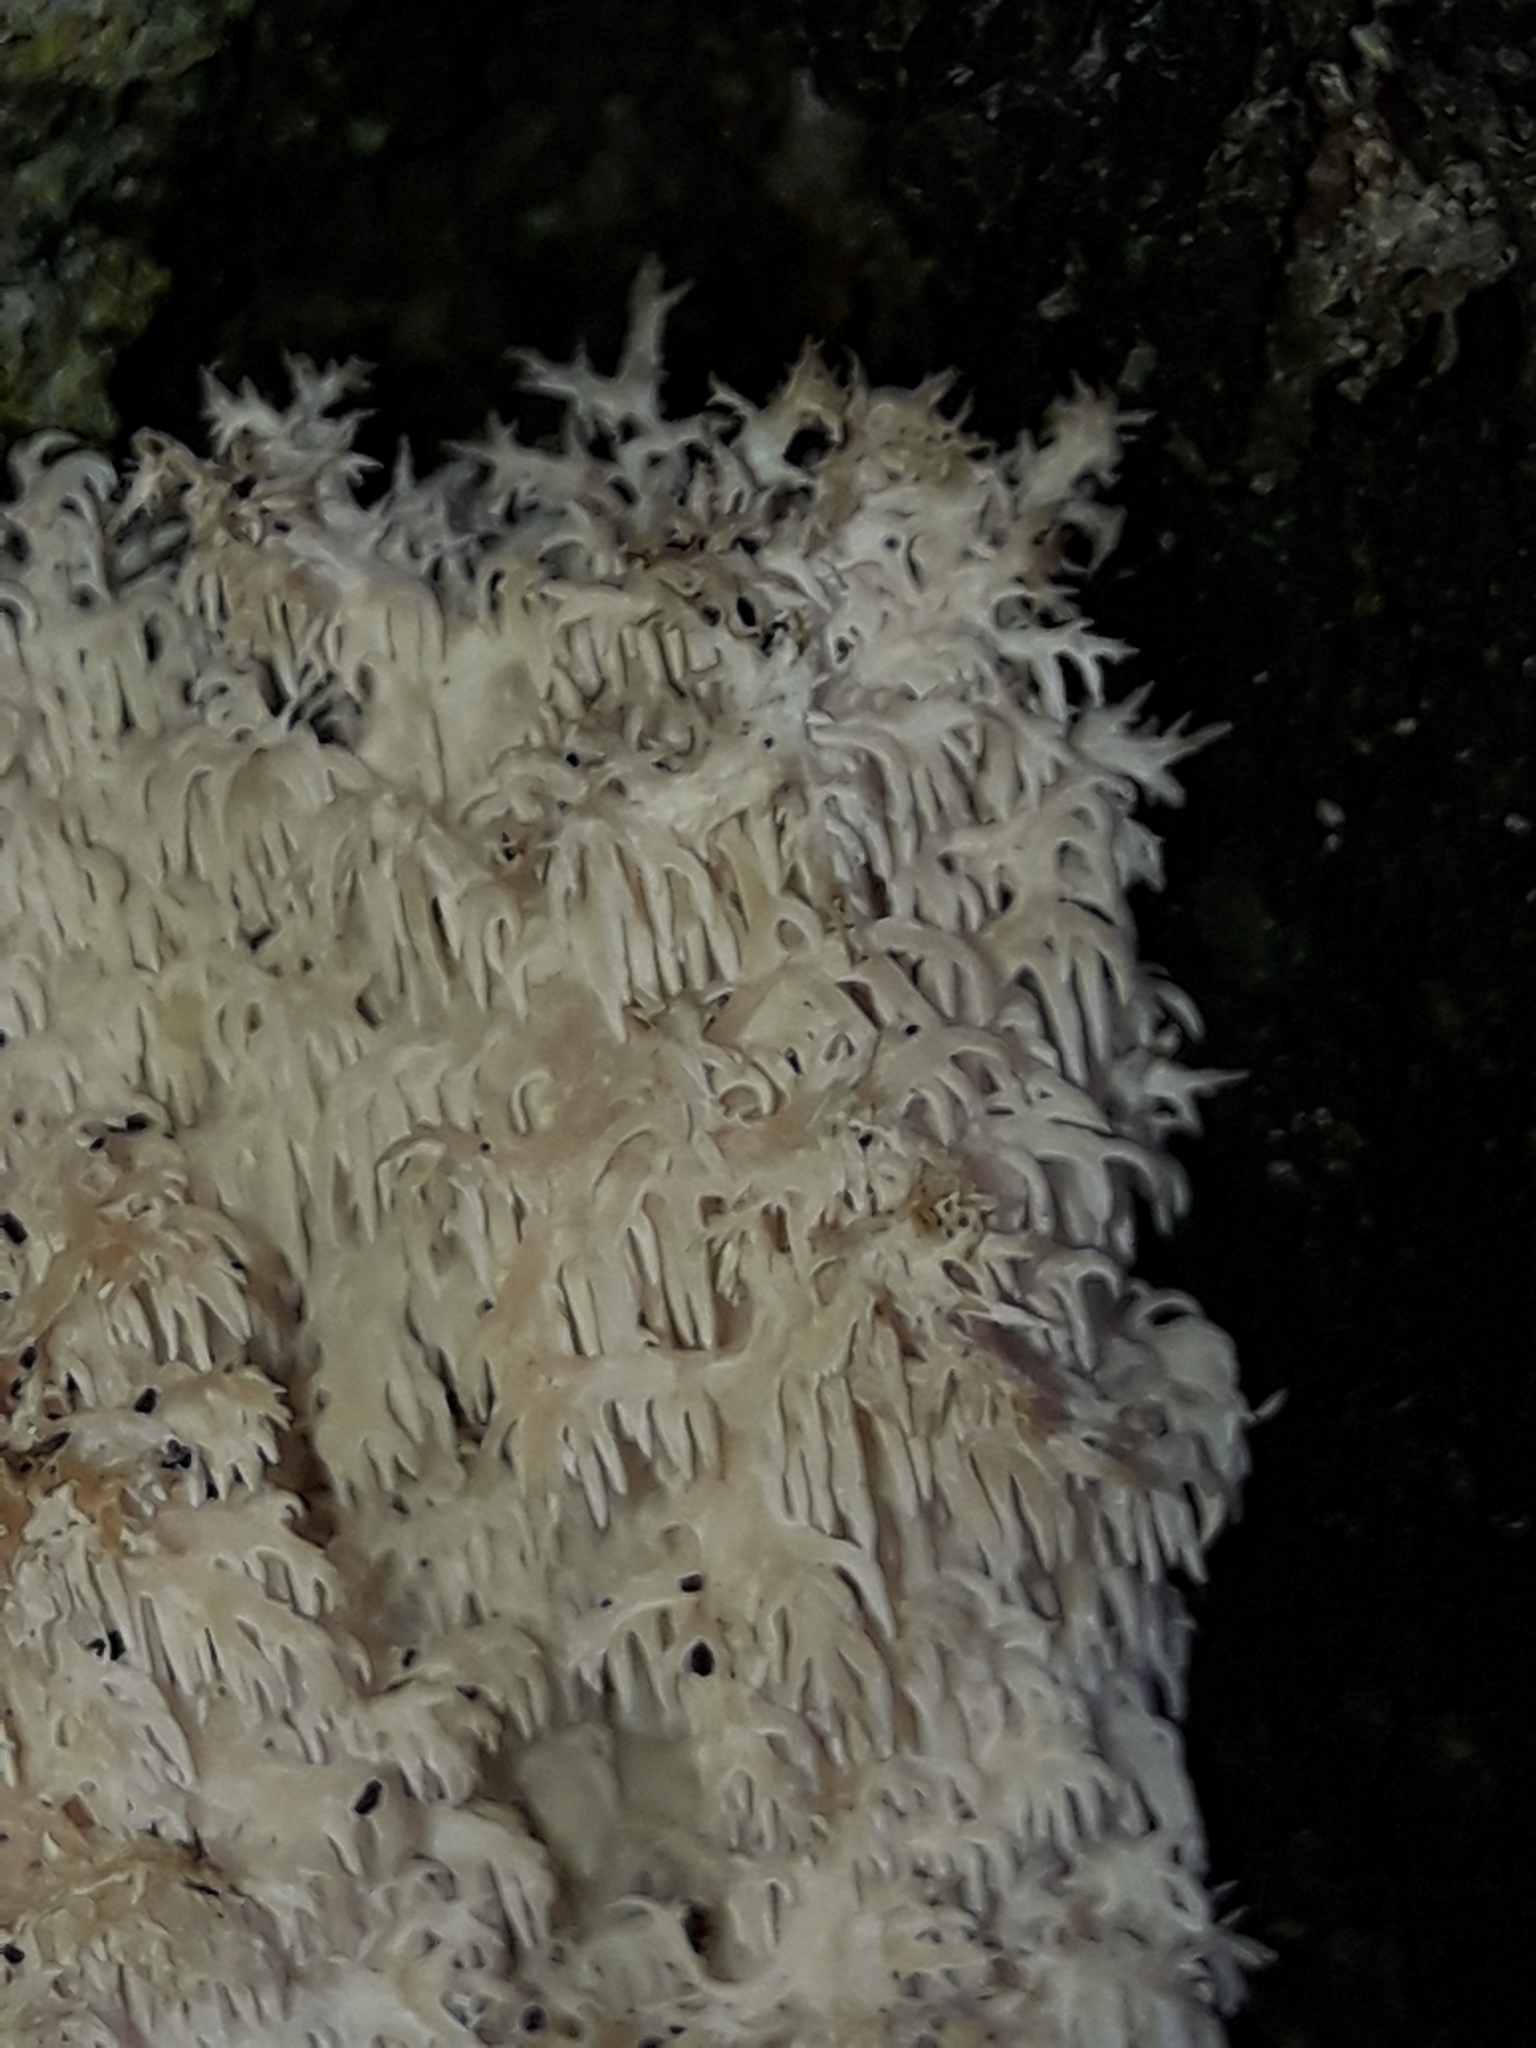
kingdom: Fungi
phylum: Basidiomycota
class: Agaricomycetes
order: Russulales
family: Hericiaceae
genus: Hericium
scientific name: Hericium novae-zealandiae
